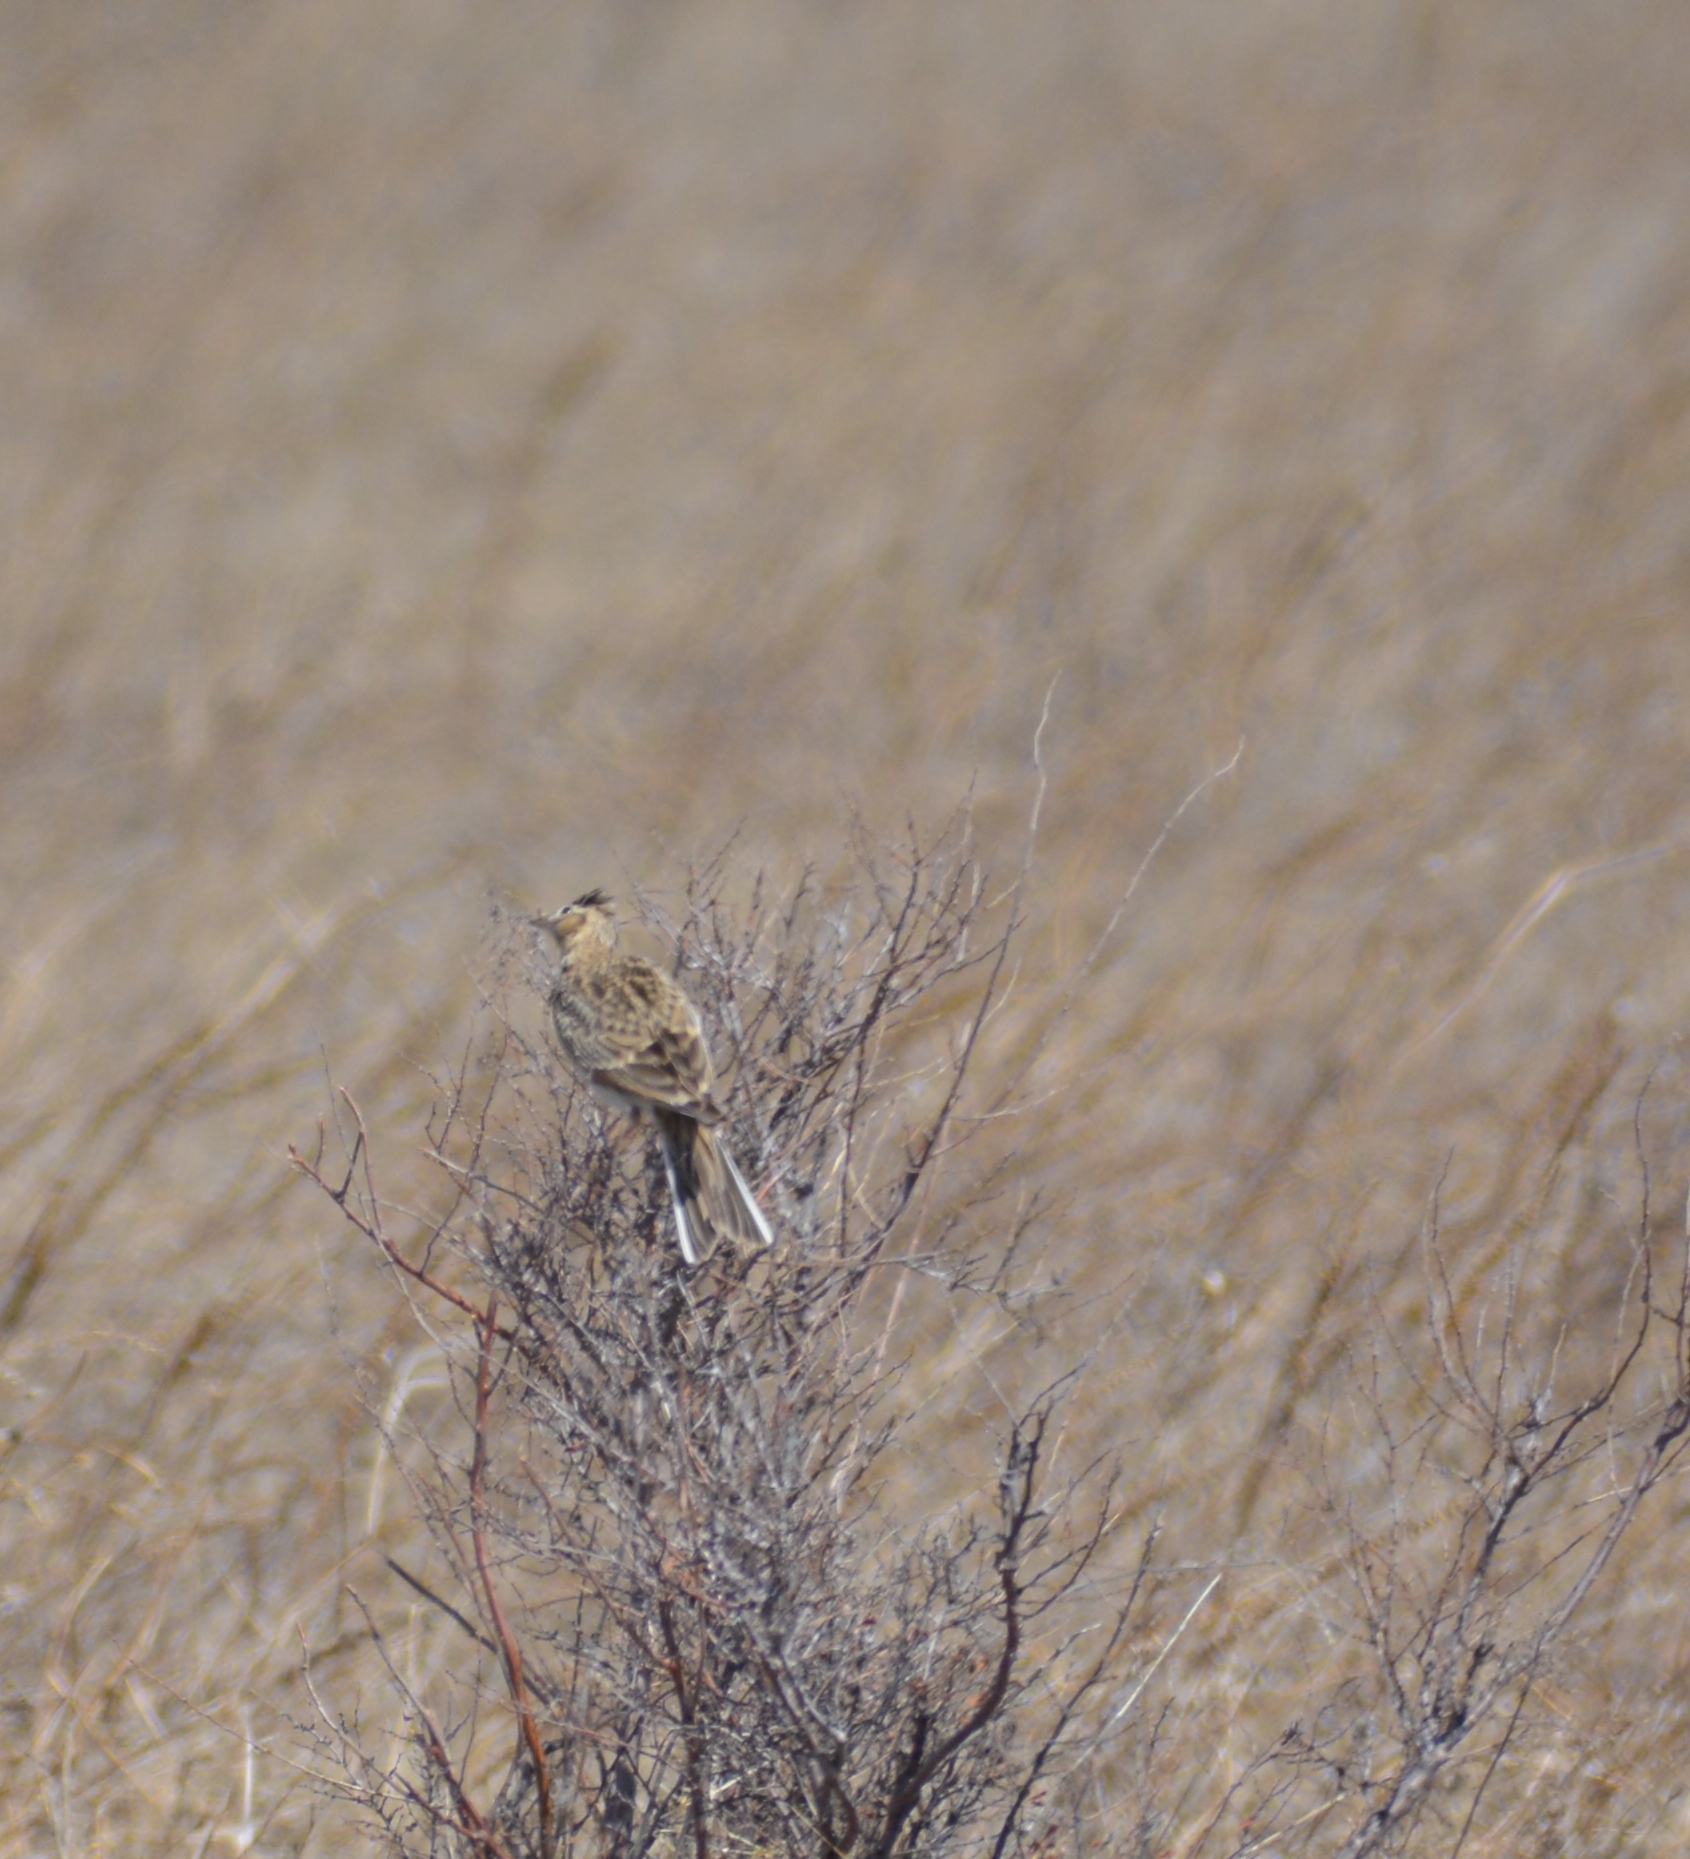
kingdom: Animalia
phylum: Chordata
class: Aves
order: Passeriformes
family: Alaudidae
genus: Alauda
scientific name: Alauda arvensis
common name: Eurasian skylark
